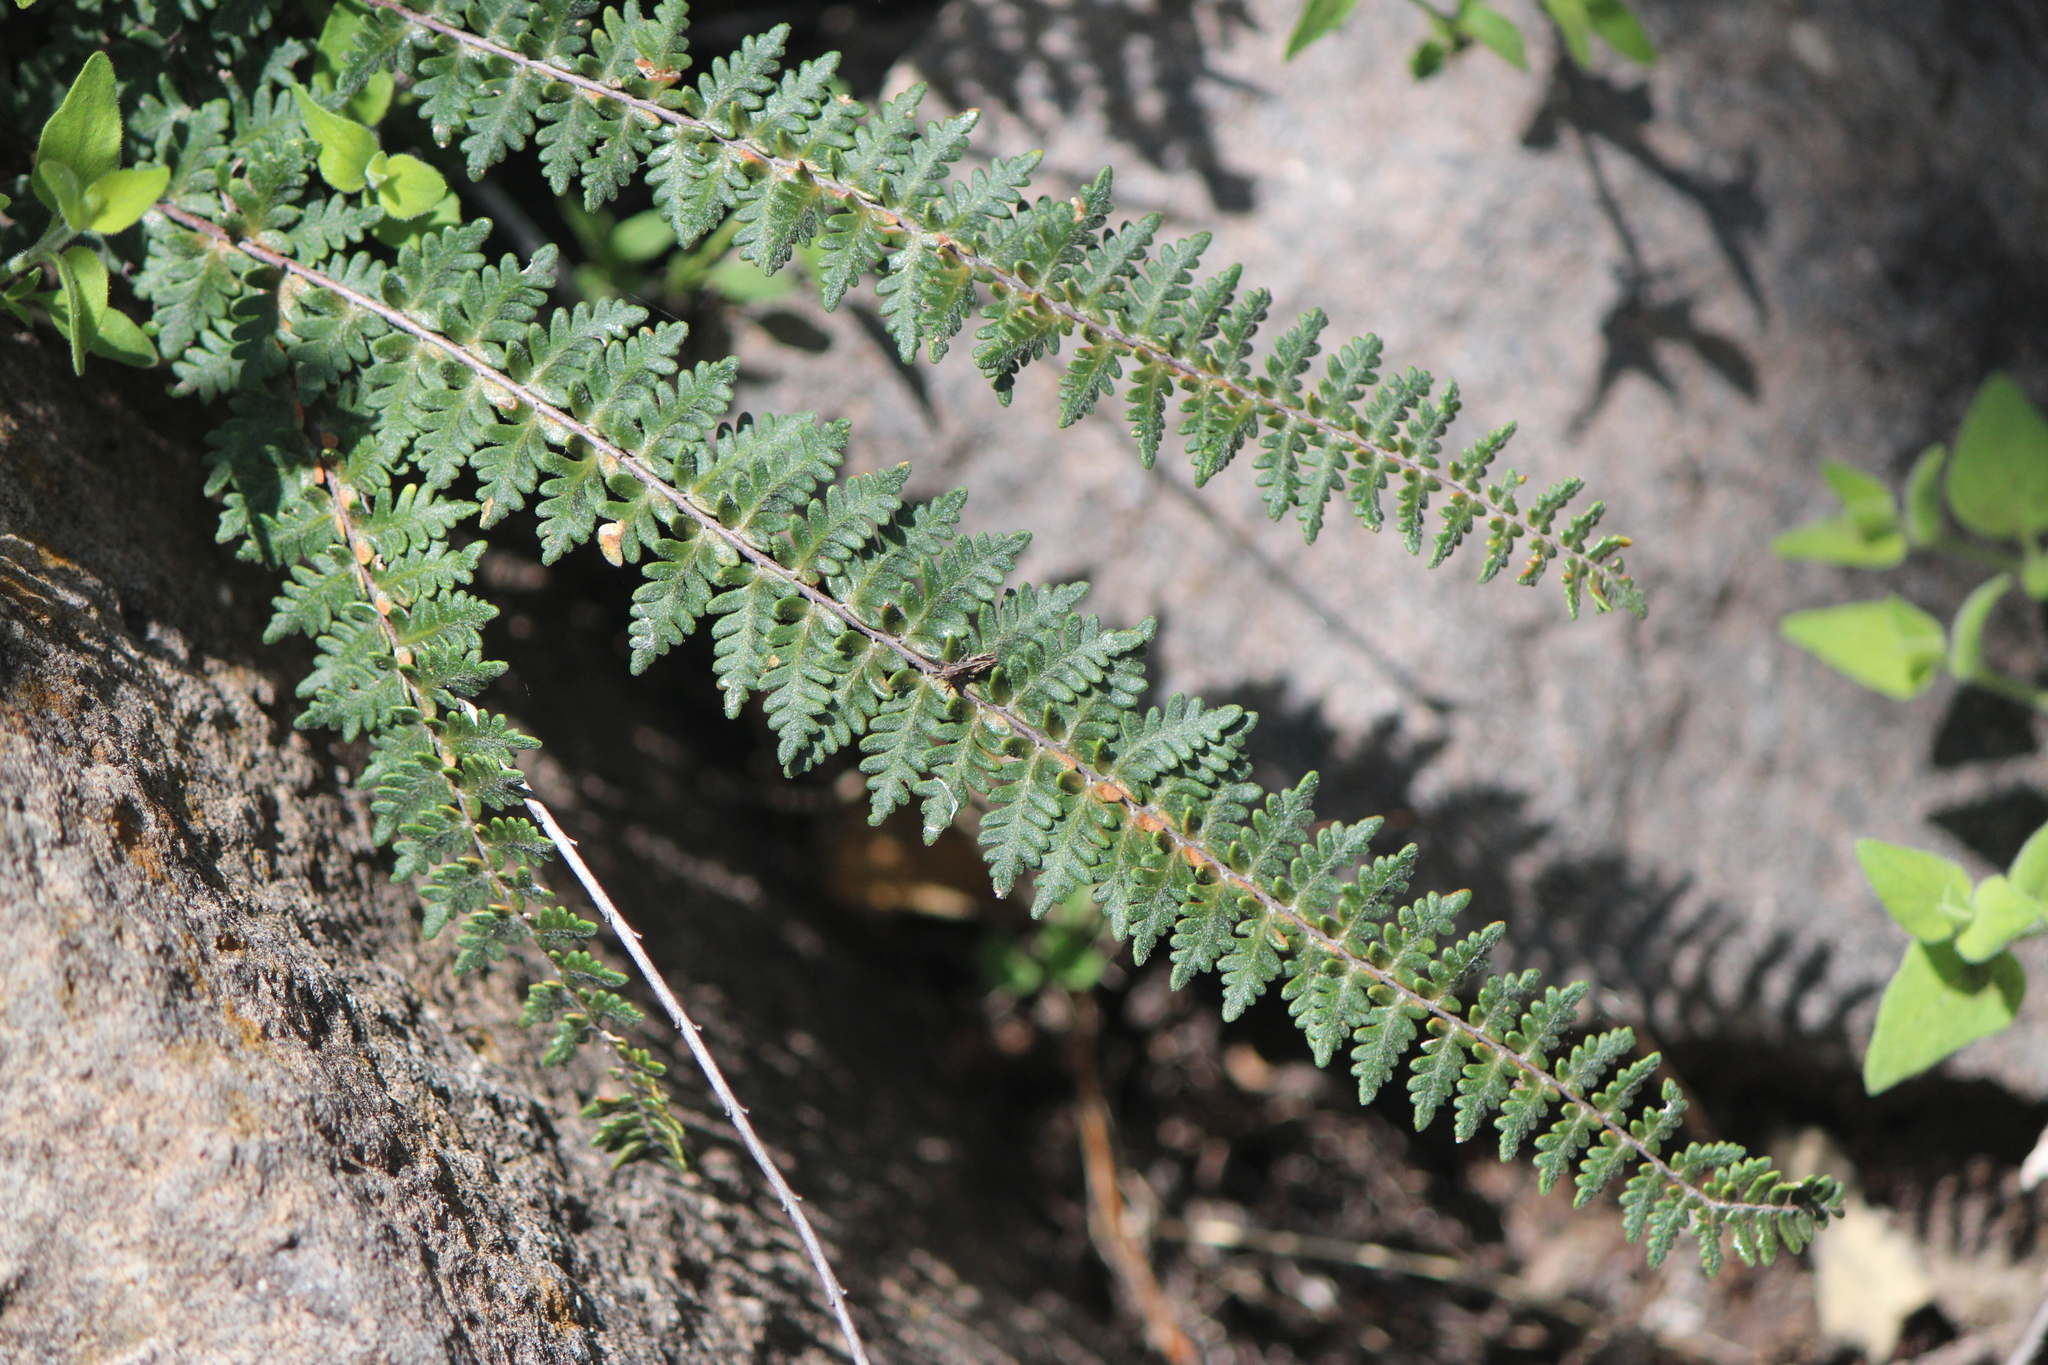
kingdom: Plantae
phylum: Tracheophyta
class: Polypodiopsida
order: Polypodiales
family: Pteridaceae
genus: Myriopteris
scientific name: Myriopteris aurea
